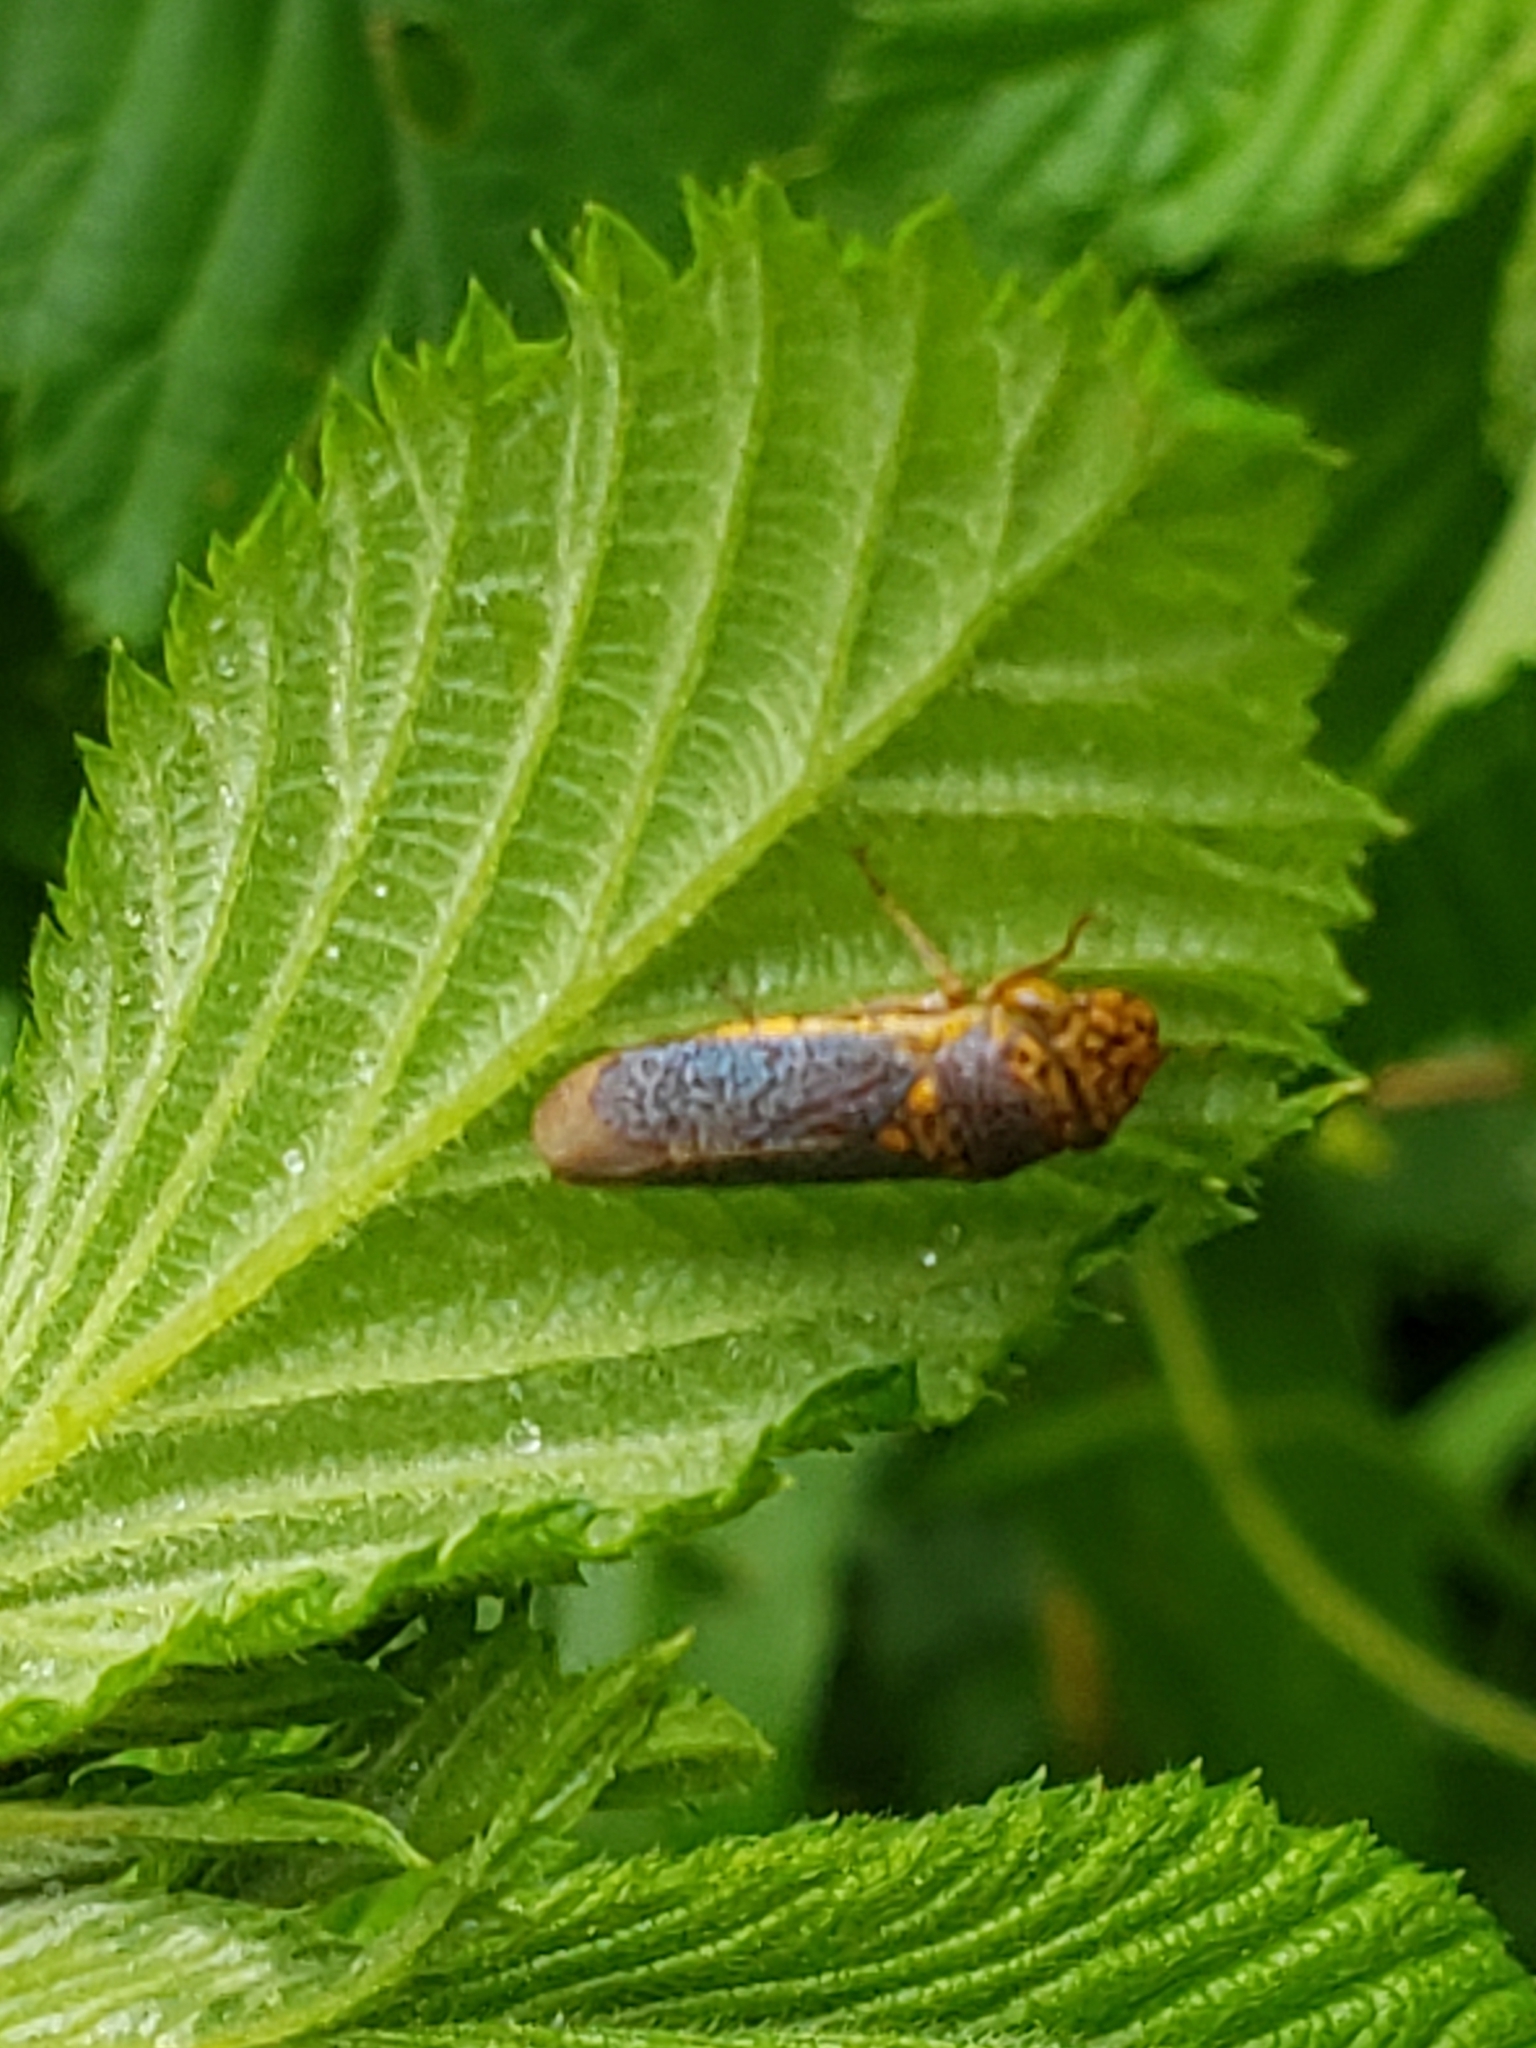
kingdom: Animalia
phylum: Arthropoda
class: Insecta
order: Hemiptera
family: Cicadellidae
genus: Oncometopia
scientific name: Oncometopia orbona
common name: Broad-headed sharpshooter
